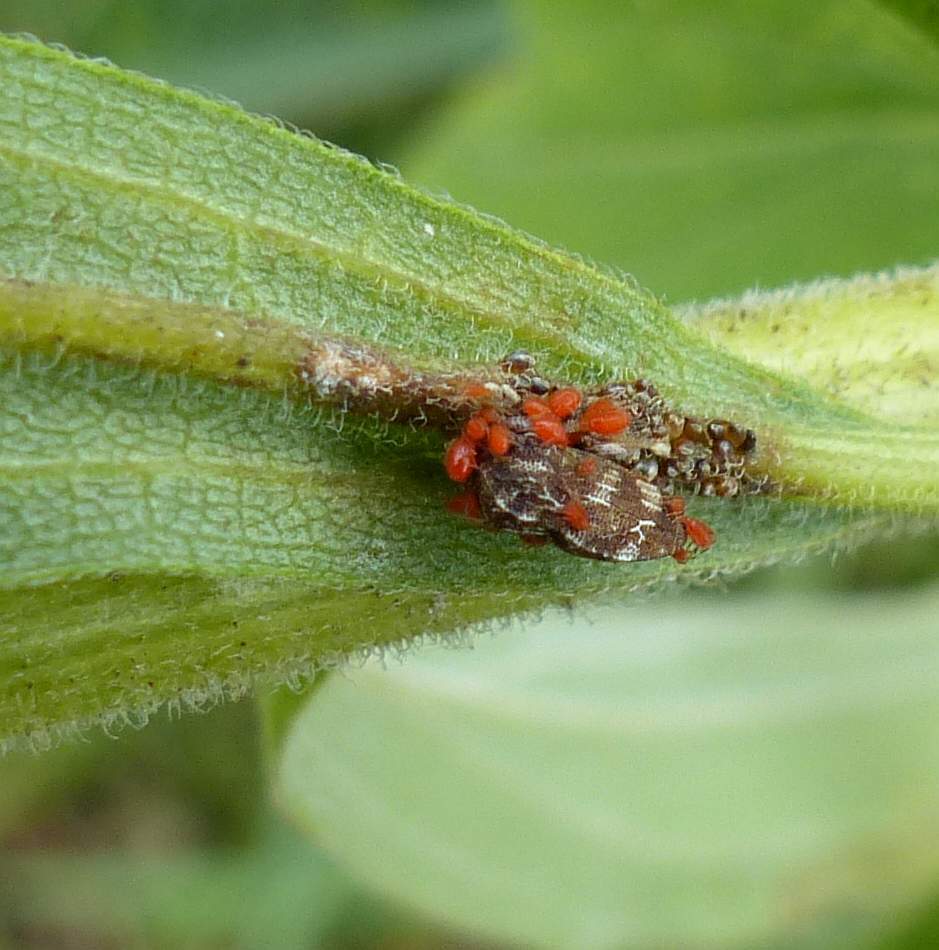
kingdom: Animalia
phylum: Arthropoda
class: Insecta
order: Hemiptera
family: Membracidae
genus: Publilia
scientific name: Publilia concava
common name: Aster treehopper
